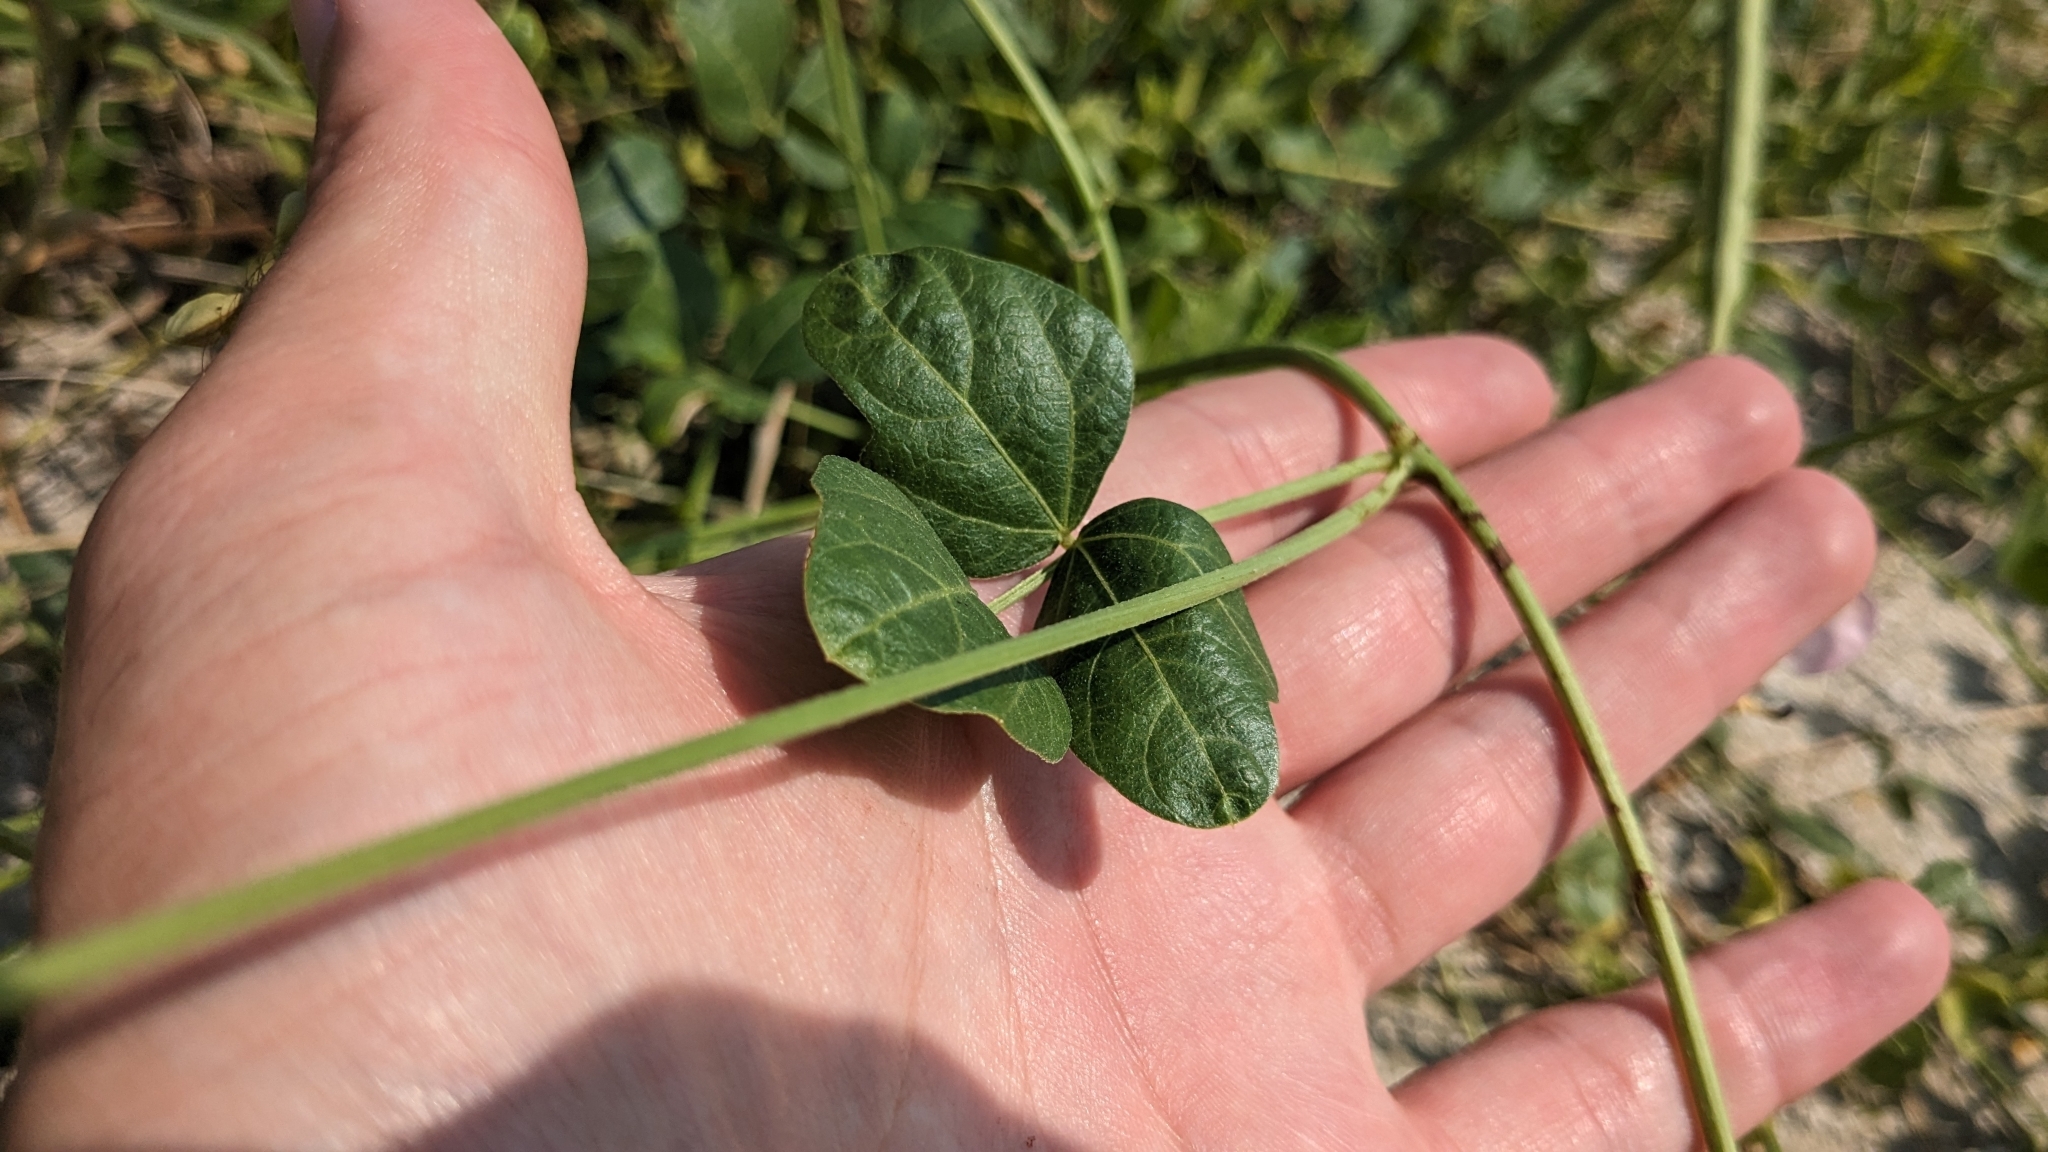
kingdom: Plantae
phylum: Tracheophyta
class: Magnoliopsida
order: Fabales
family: Fabaceae
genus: Strophostyles
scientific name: Strophostyles helvola
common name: Trailing wild bean
